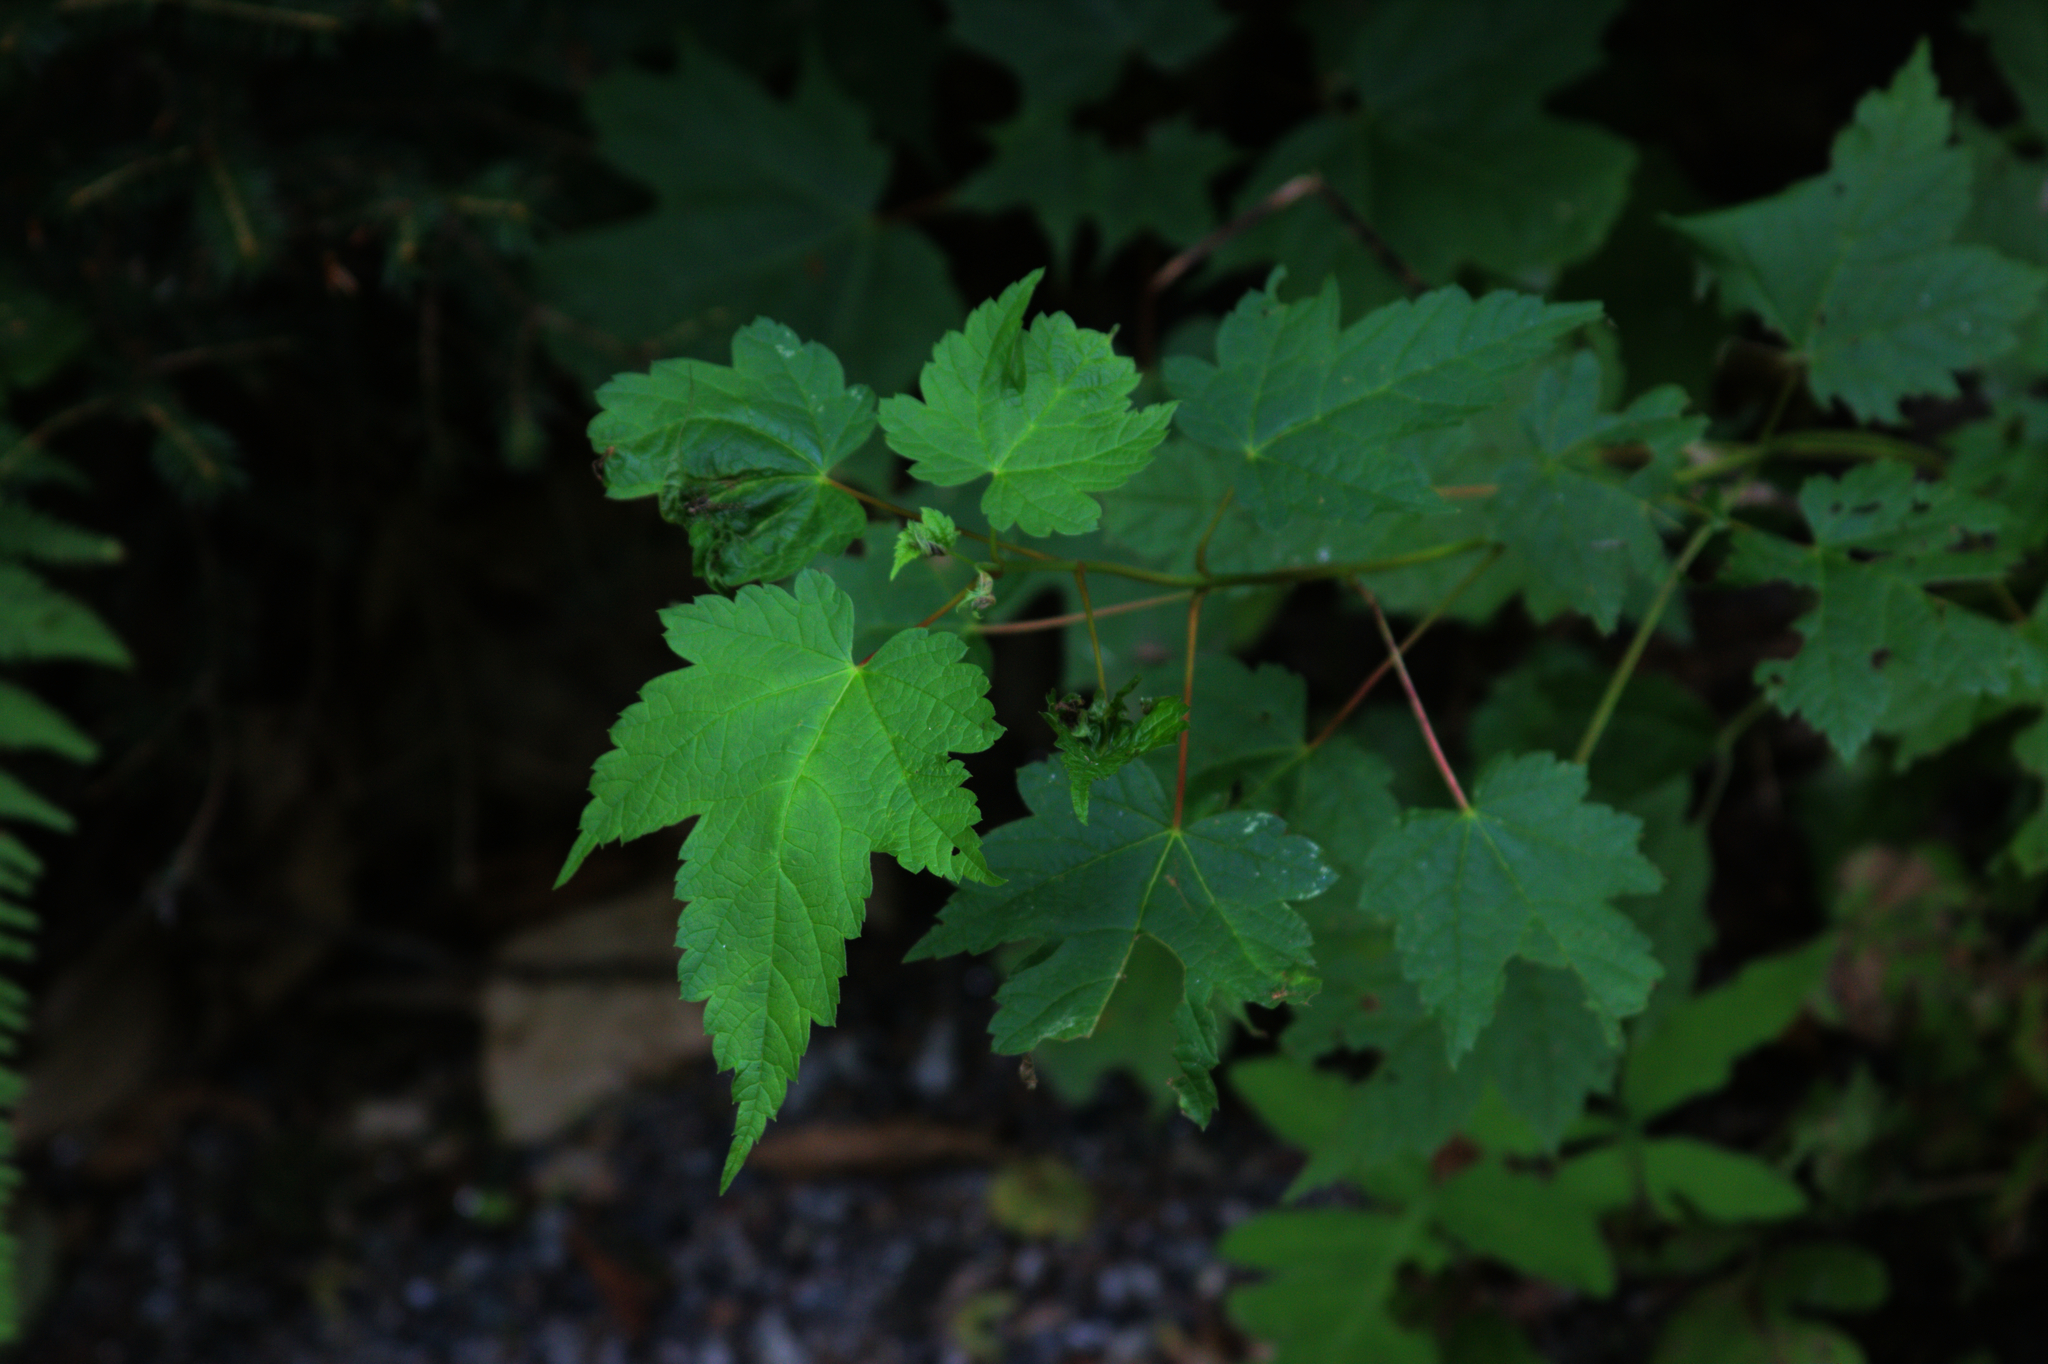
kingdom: Plantae
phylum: Tracheophyta
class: Magnoliopsida
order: Sapindales
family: Sapindaceae
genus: Acer
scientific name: Acer spicatum
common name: Mountain maple
